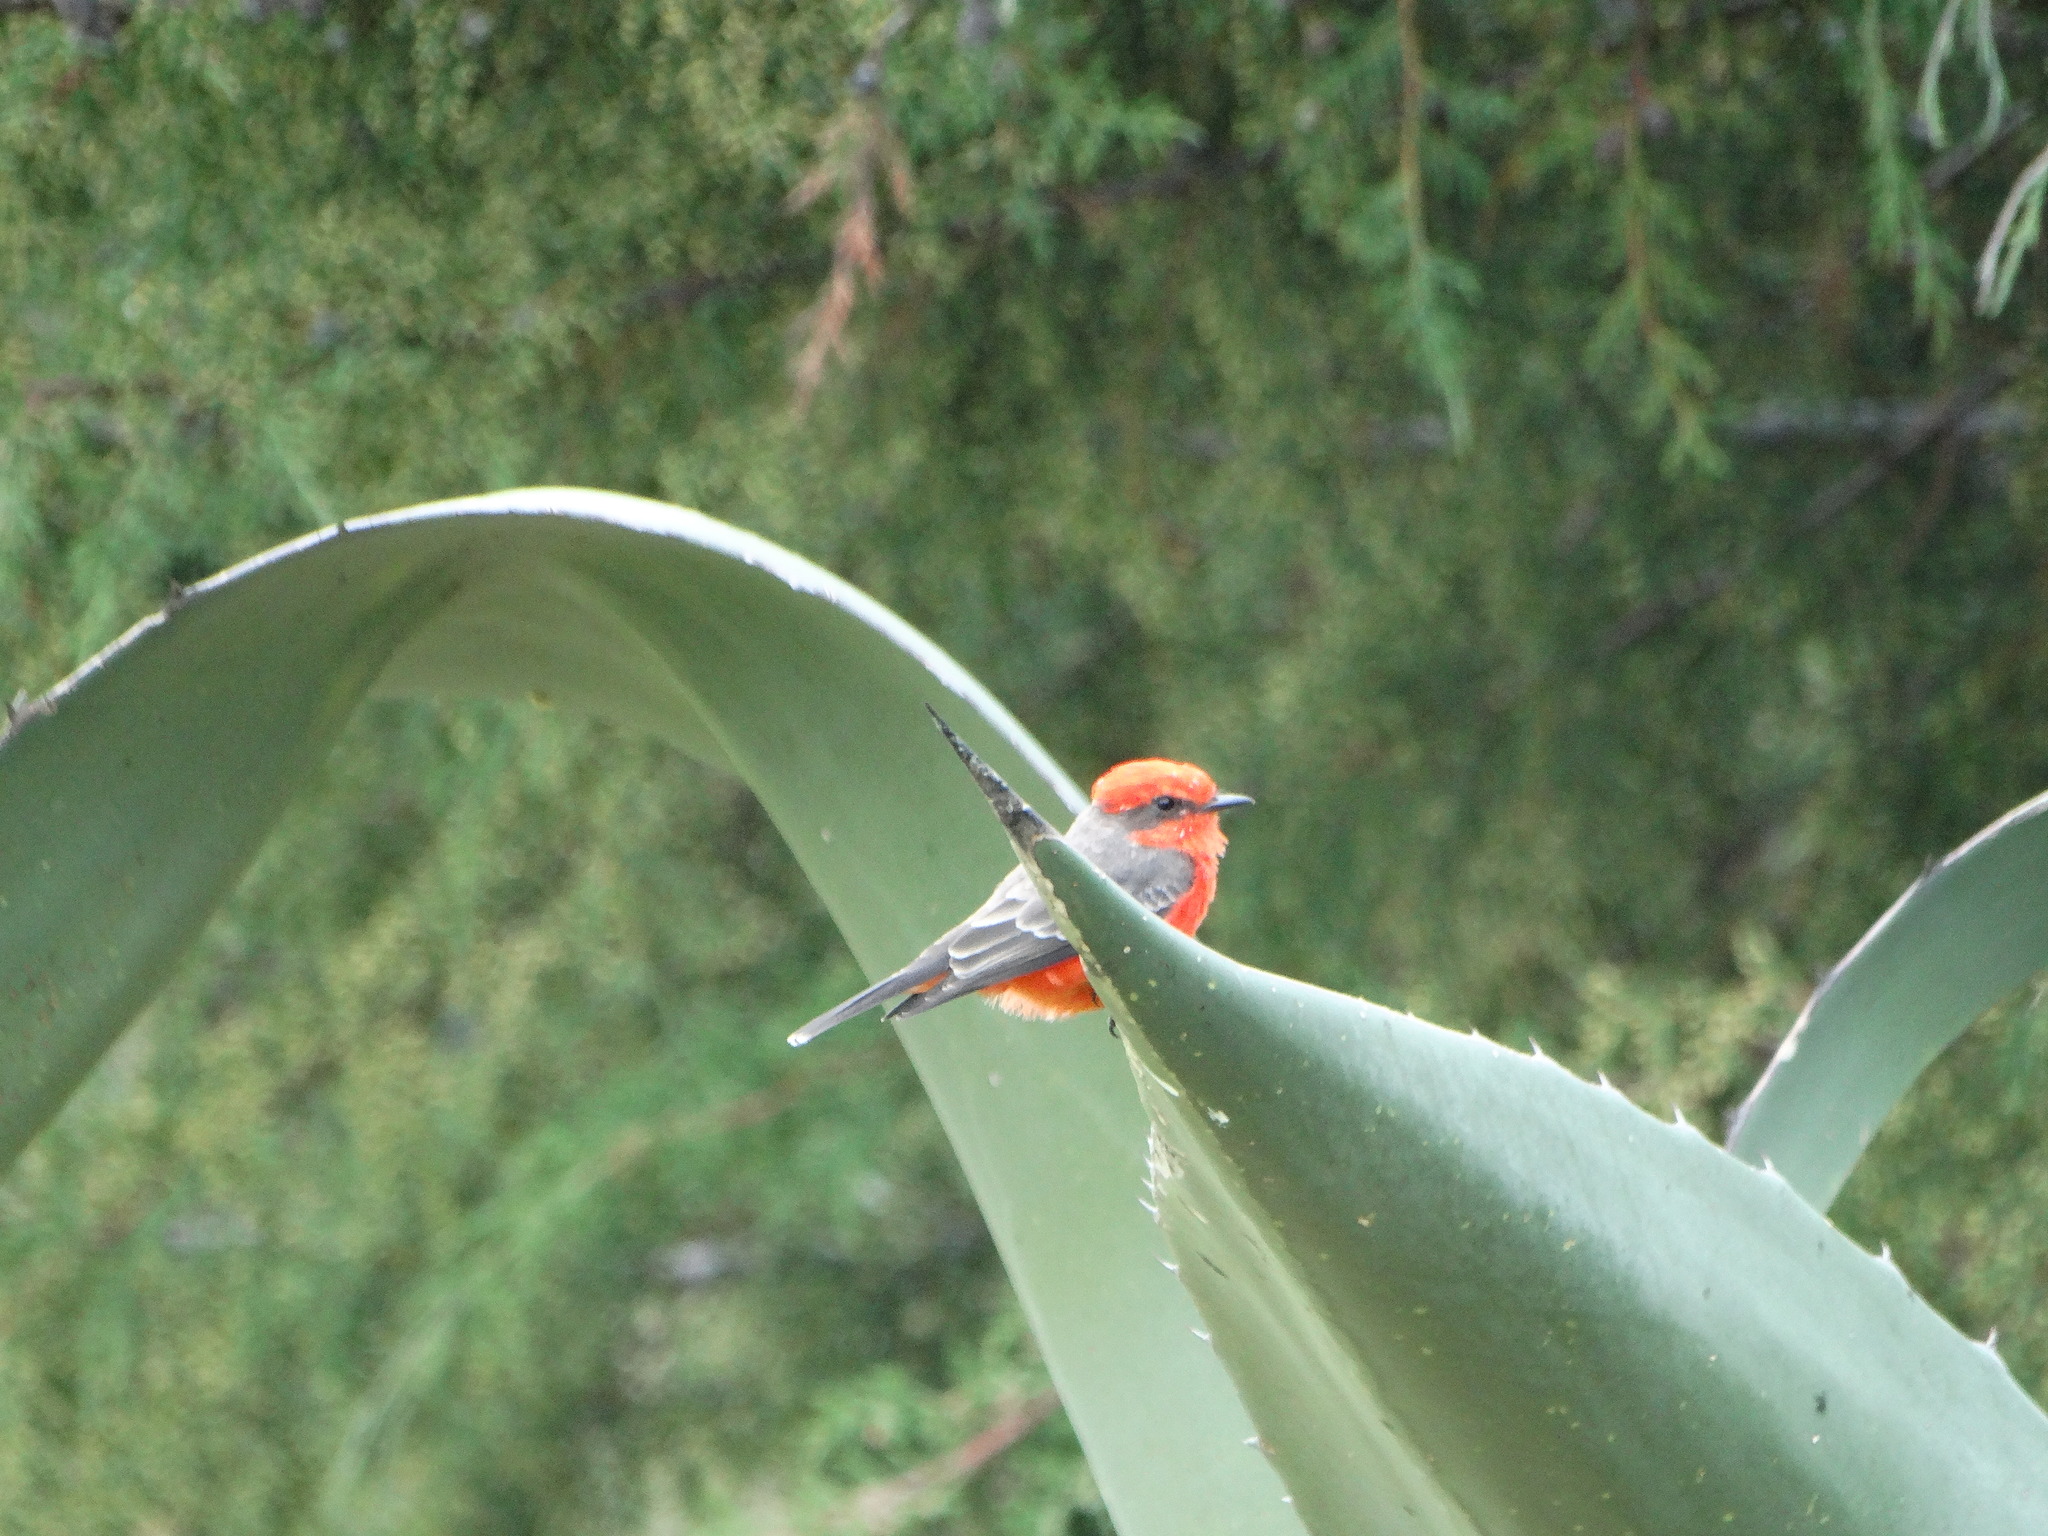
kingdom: Animalia
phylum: Chordata
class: Aves
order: Passeriformes
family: Tyrannidae
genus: Pyrocephalus
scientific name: Pyrocephalus rubinus
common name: Vermilion flycatcher
